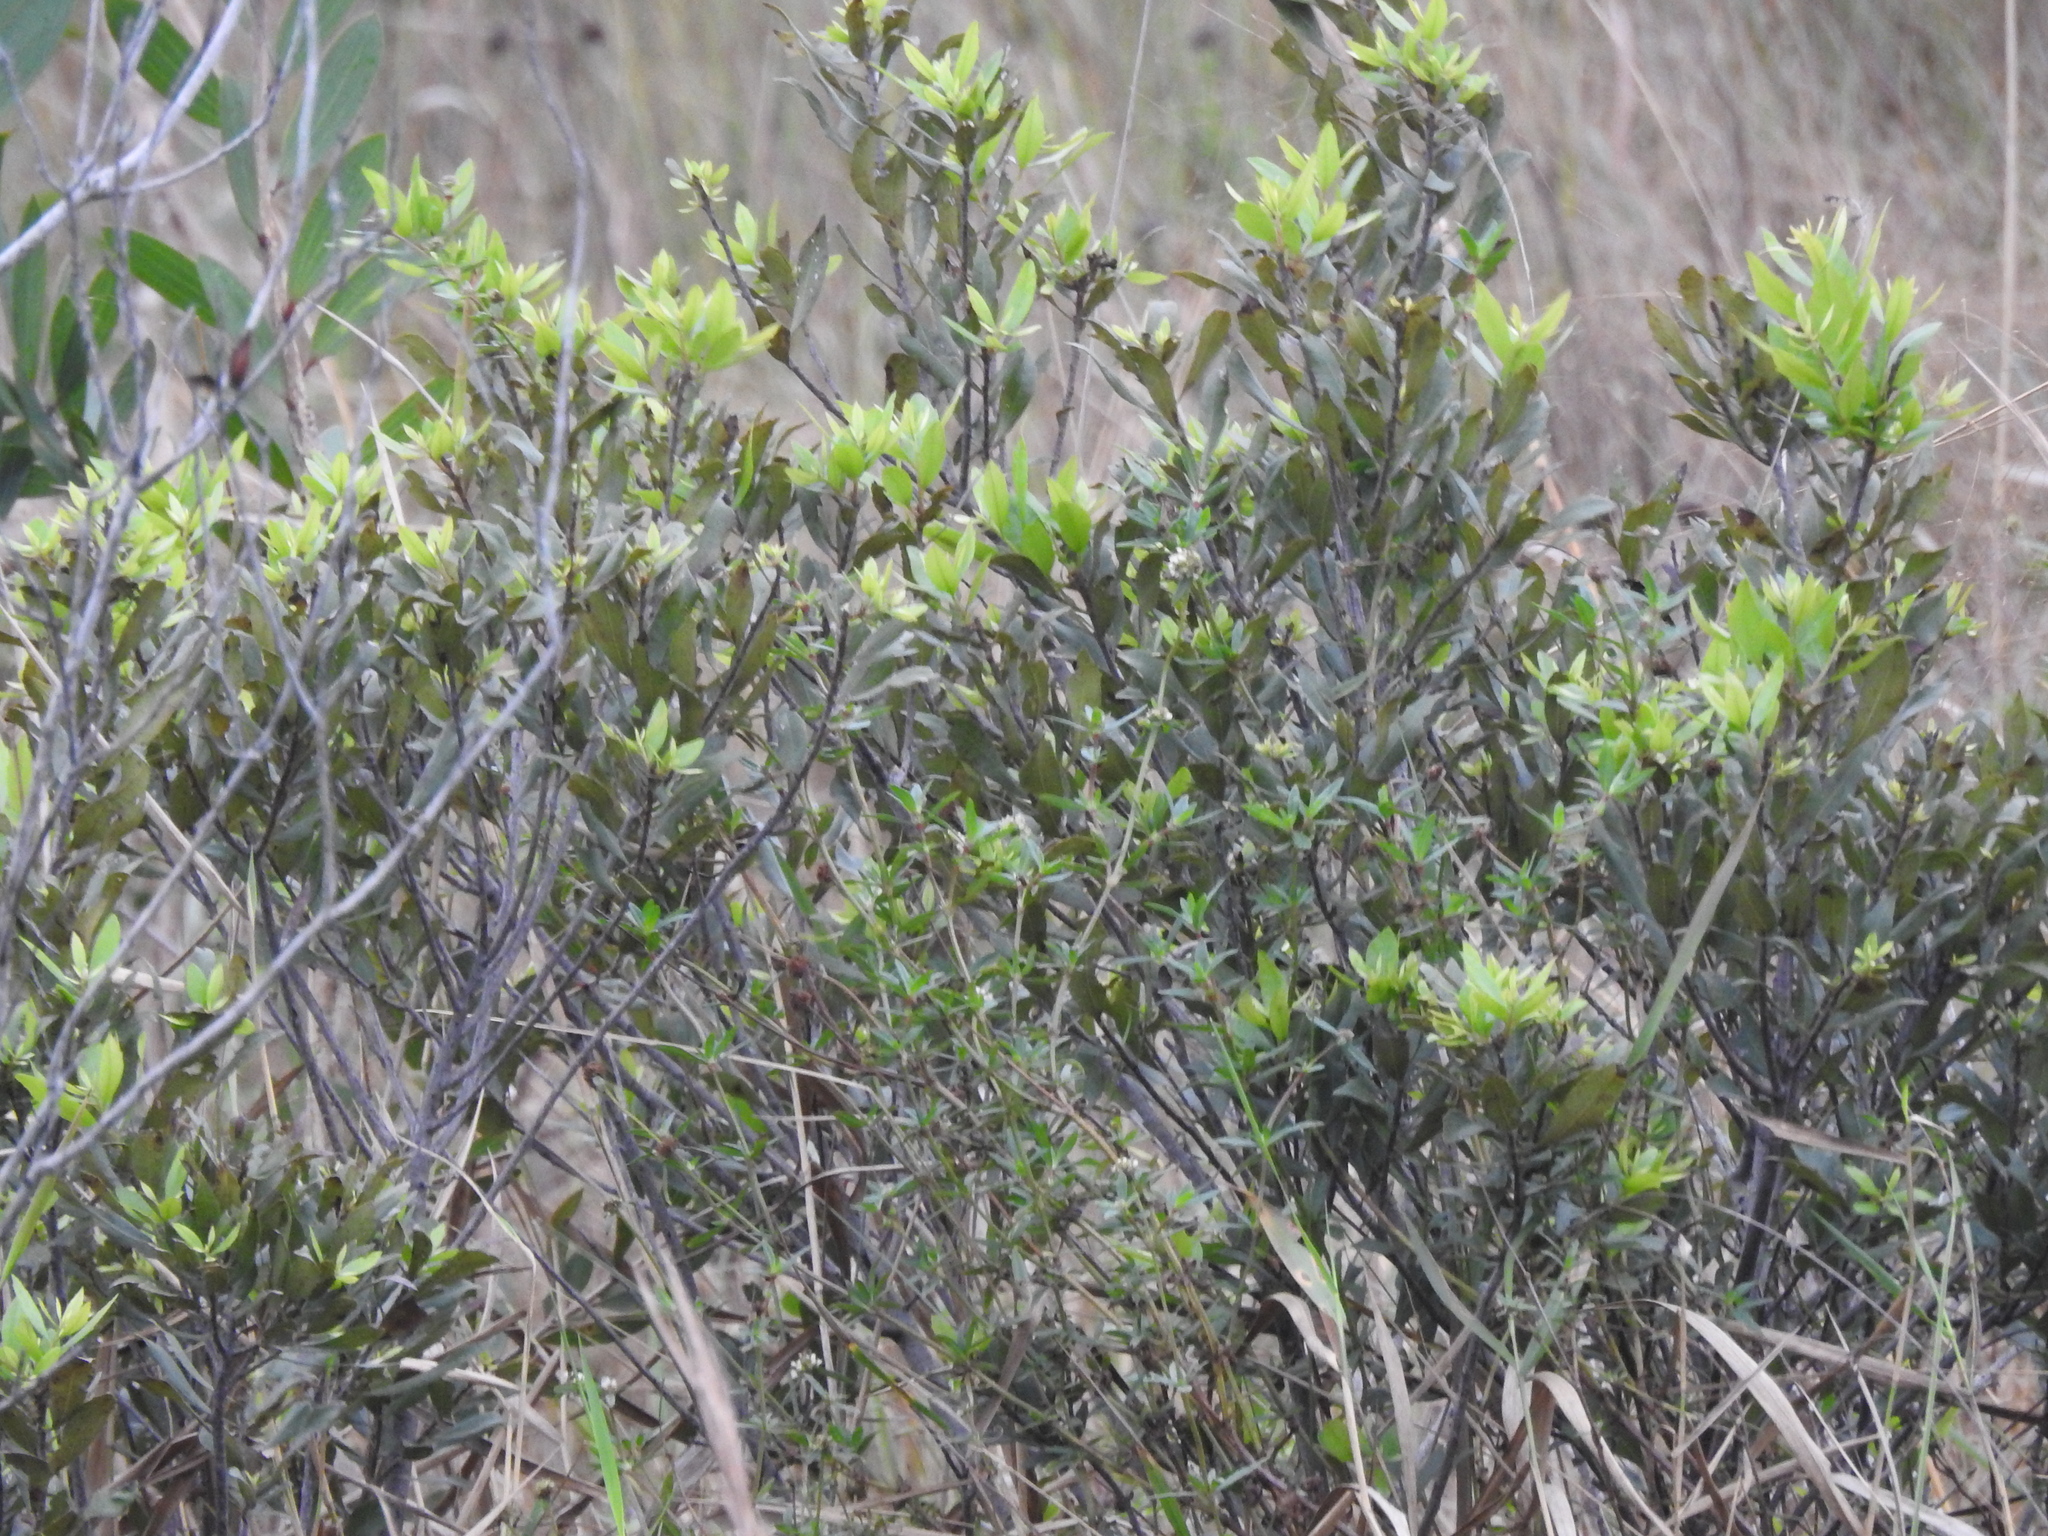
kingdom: Plantae
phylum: Tracheophyta
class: Magnoliopsida
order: Fagales
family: Myricaceae
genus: Morella
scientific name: Morella cerifera
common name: Wax myrtle
